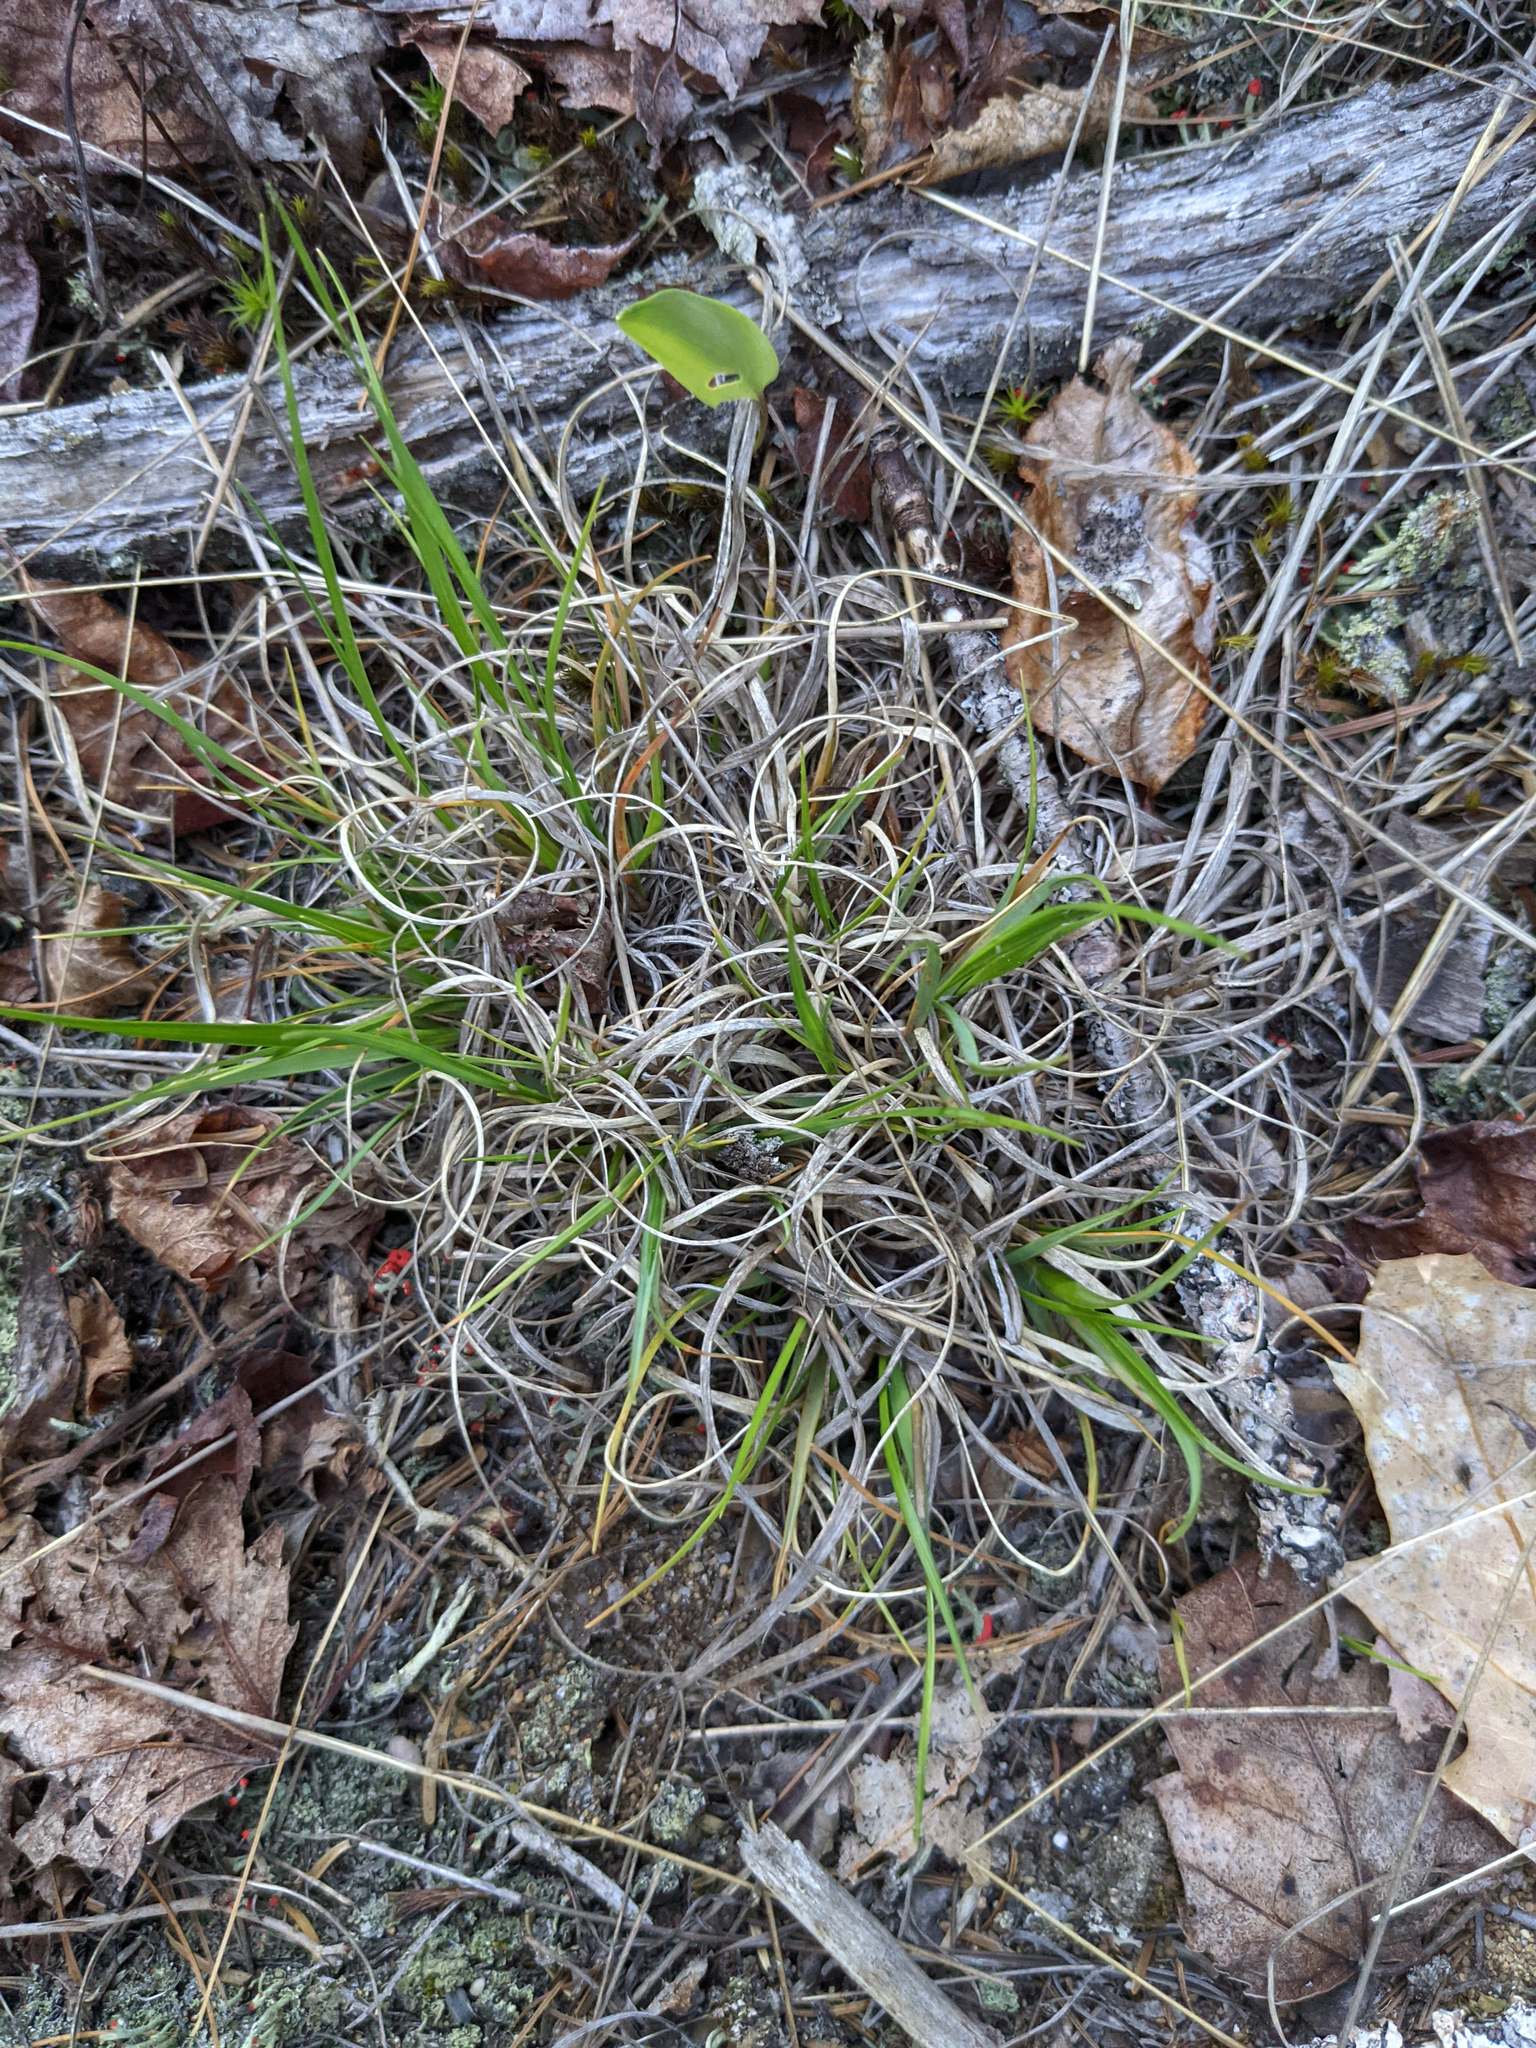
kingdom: Plantae
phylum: Tracheophyta
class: Liliopsida
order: Poales
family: Poaceae
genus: Danthonia
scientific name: Danthonia spicata
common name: Common wild oatgrass
